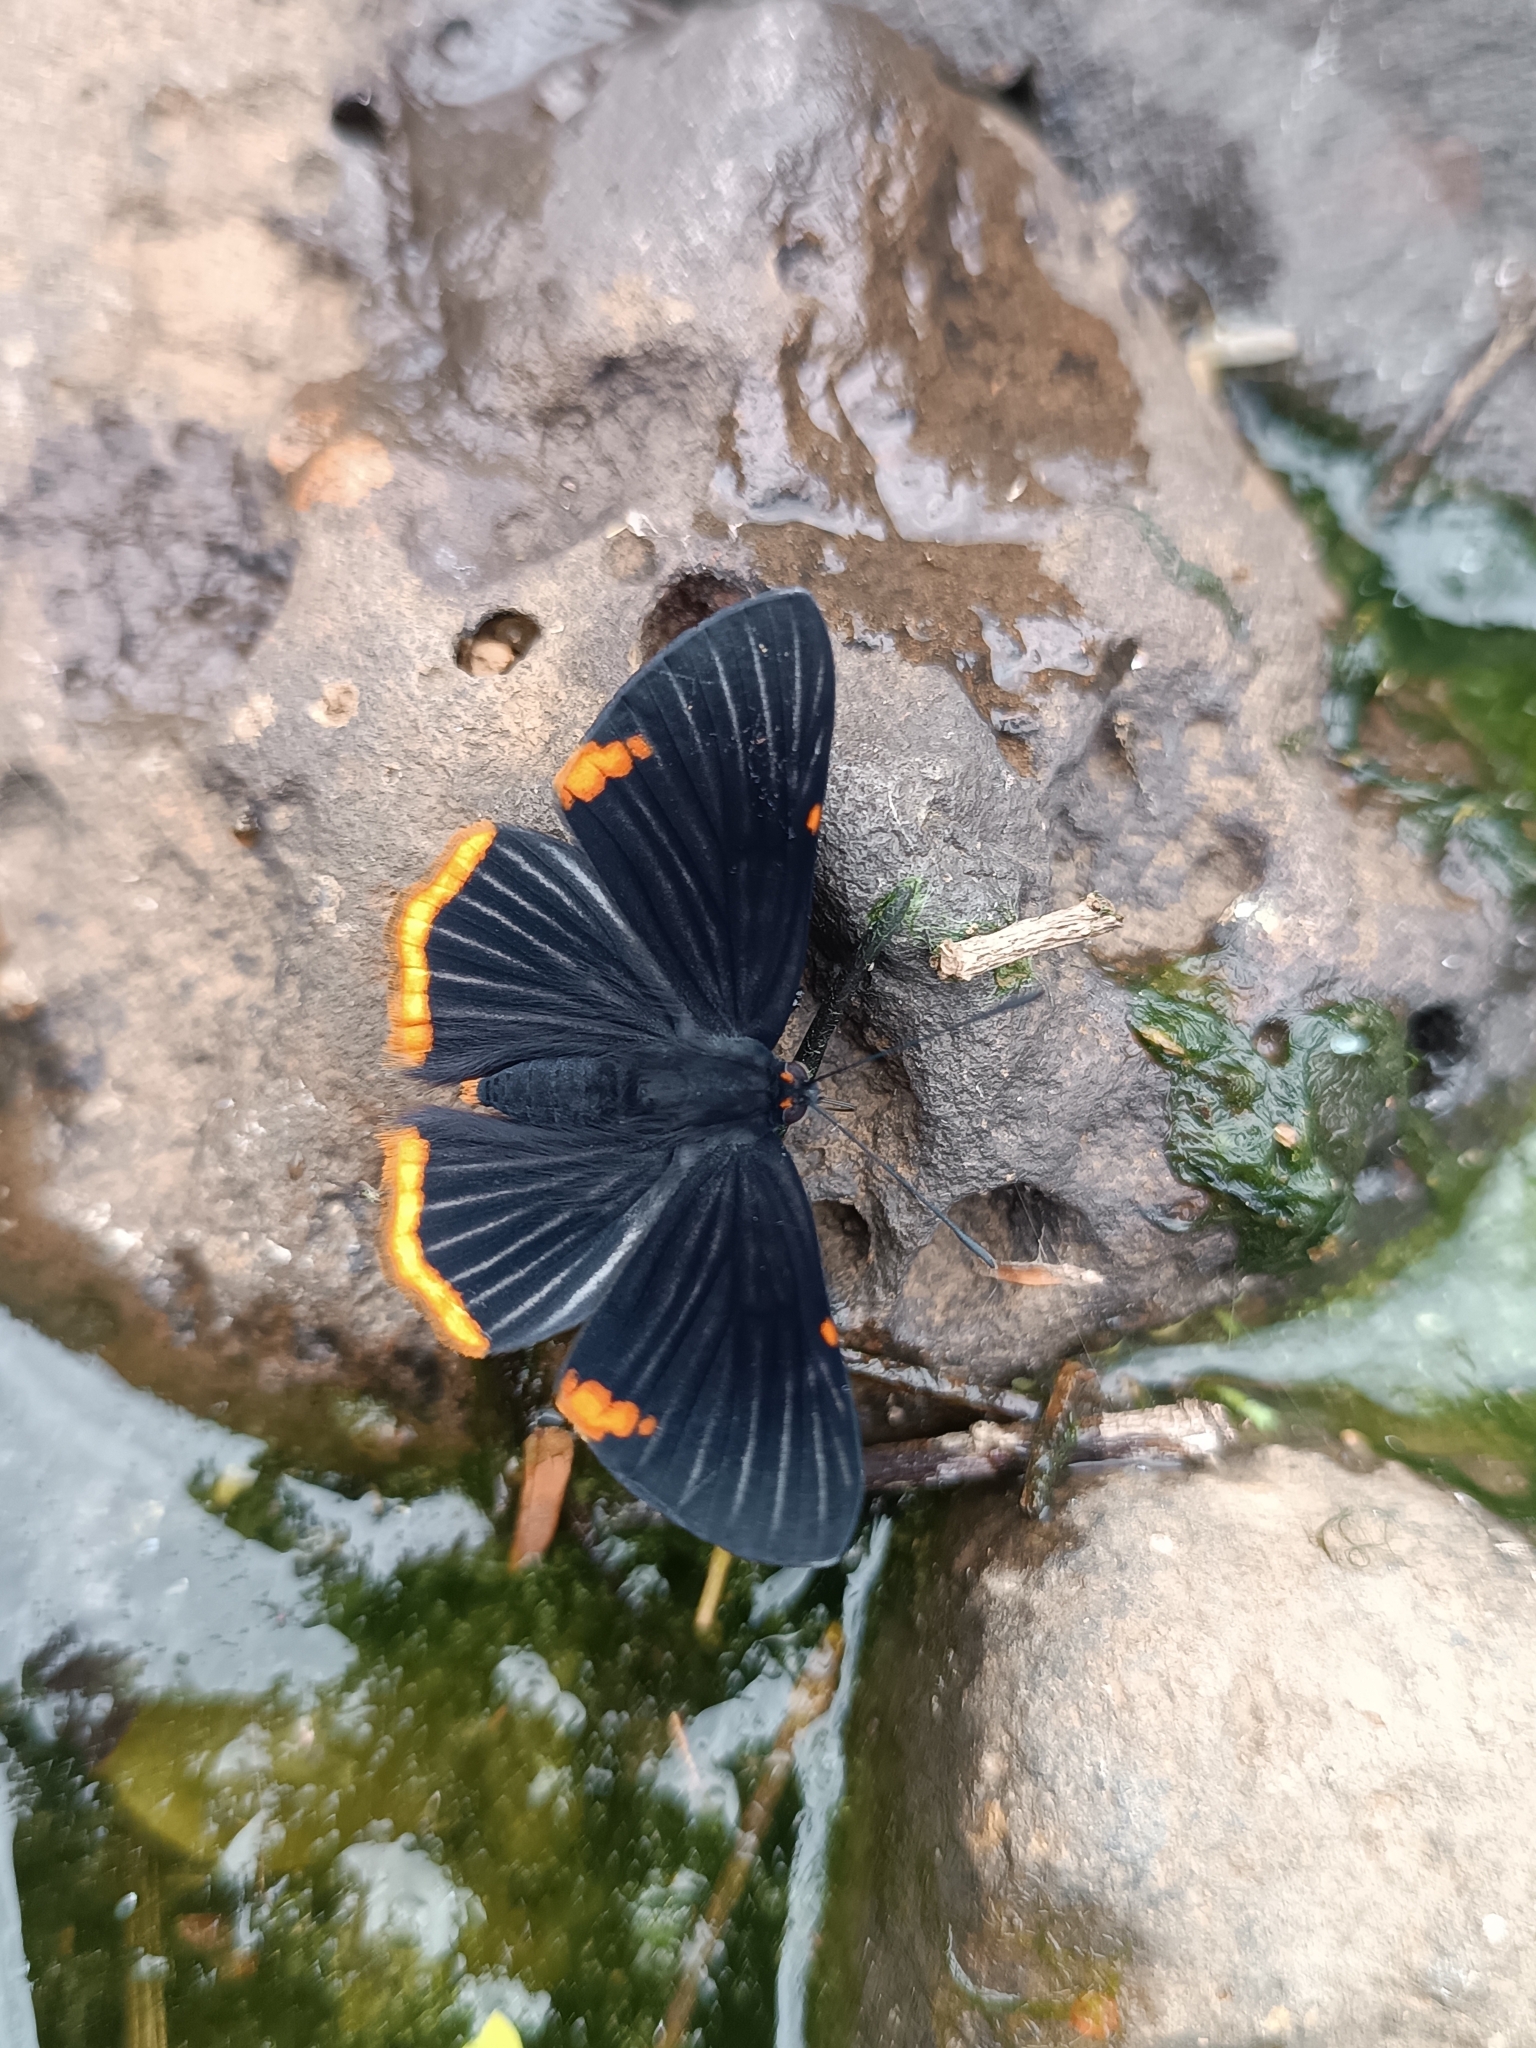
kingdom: Animalia
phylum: Arthropoda
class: Insecta
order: Lepidoptera
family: Riodinidae
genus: Riodina
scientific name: Riodina lycisca
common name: Lycisca metalmark
